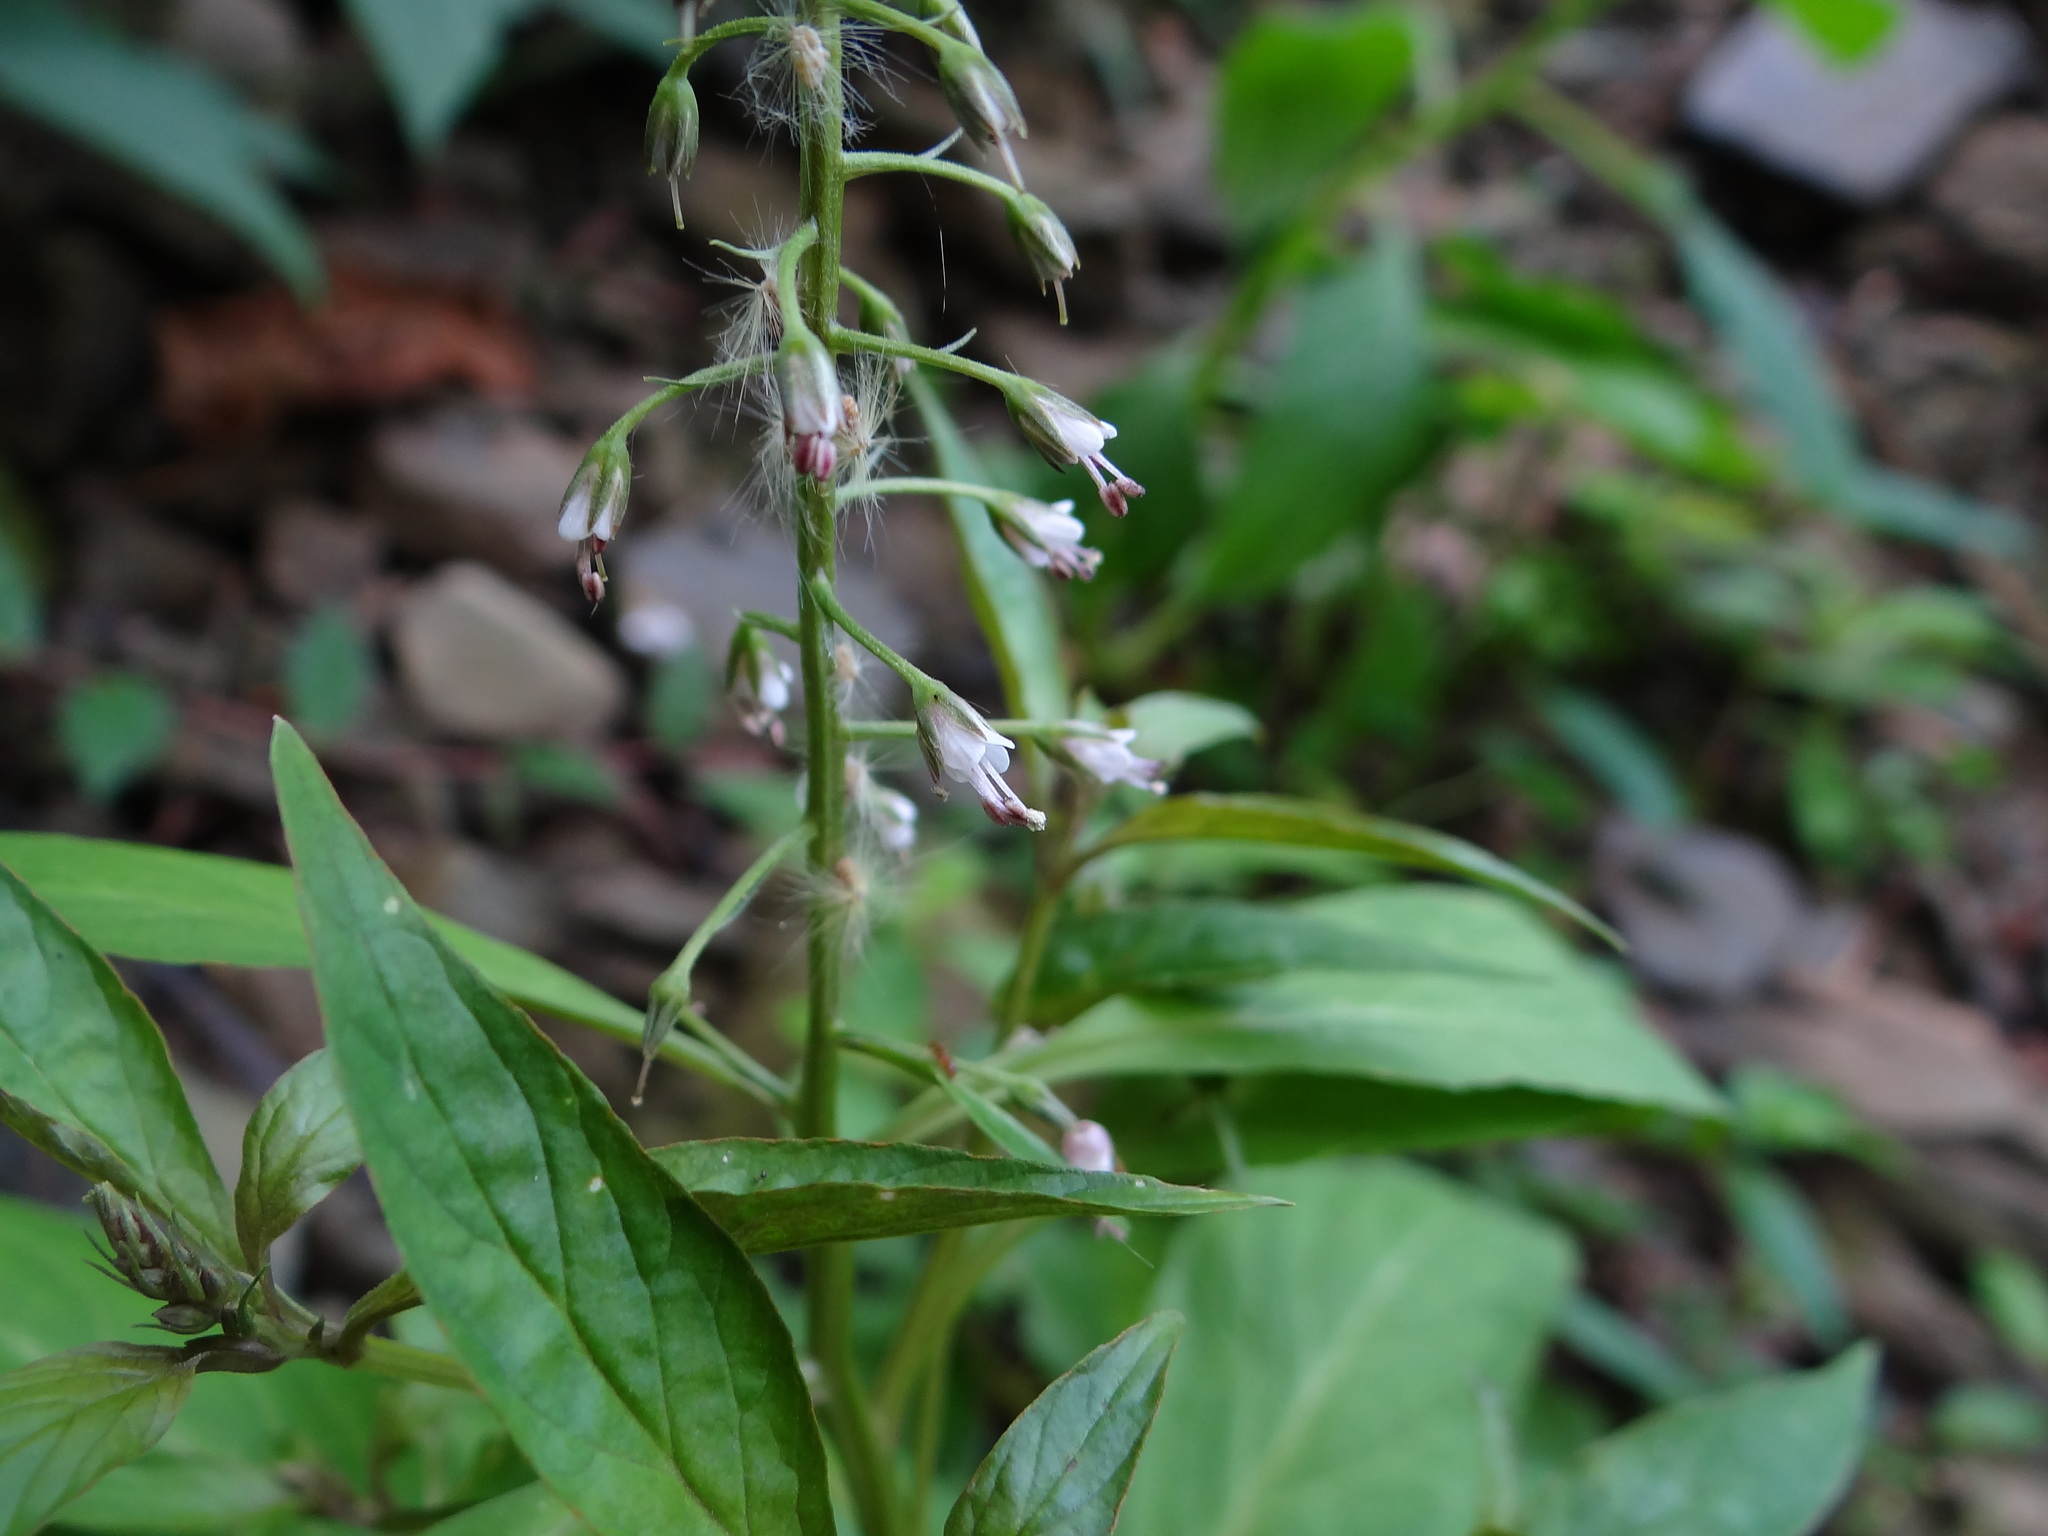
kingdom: Plantae
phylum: Tracheophyta
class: Magnoliopsida
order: Ericales
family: Primulaceae
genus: Lysimachia
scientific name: Lysimachia decurrens
